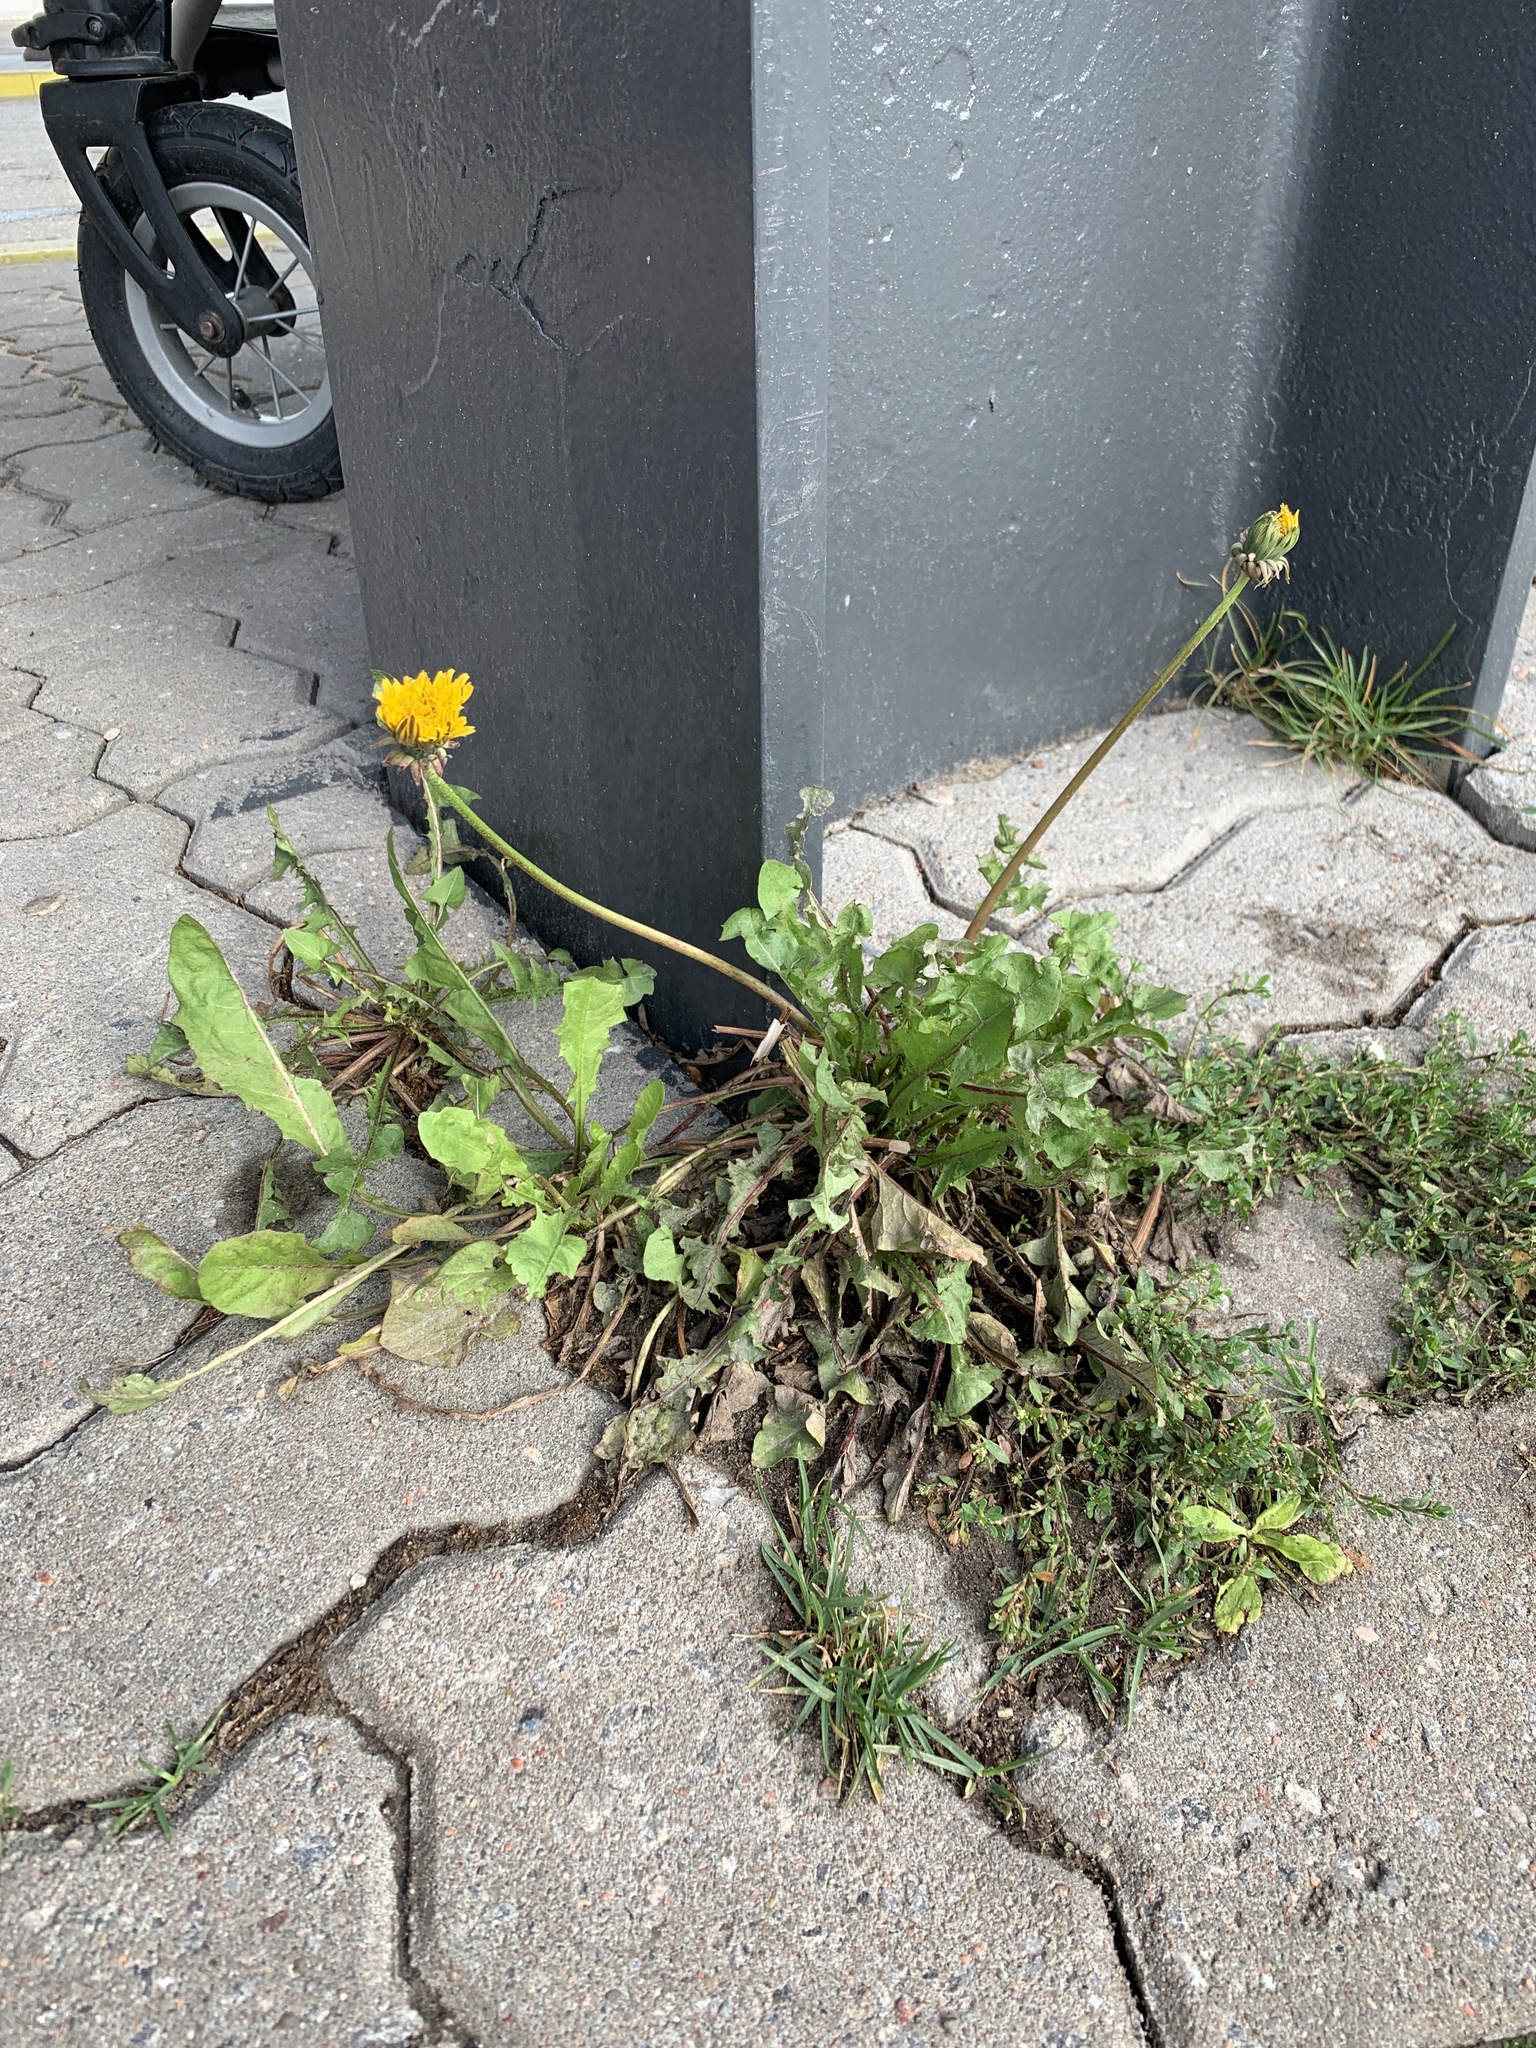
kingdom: Plantae
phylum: Tracheophyta
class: Magnoliopsida
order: Asterales
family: Asteraceae
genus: Taraxacum
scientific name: Taraxacum officinale
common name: Common dandelion
